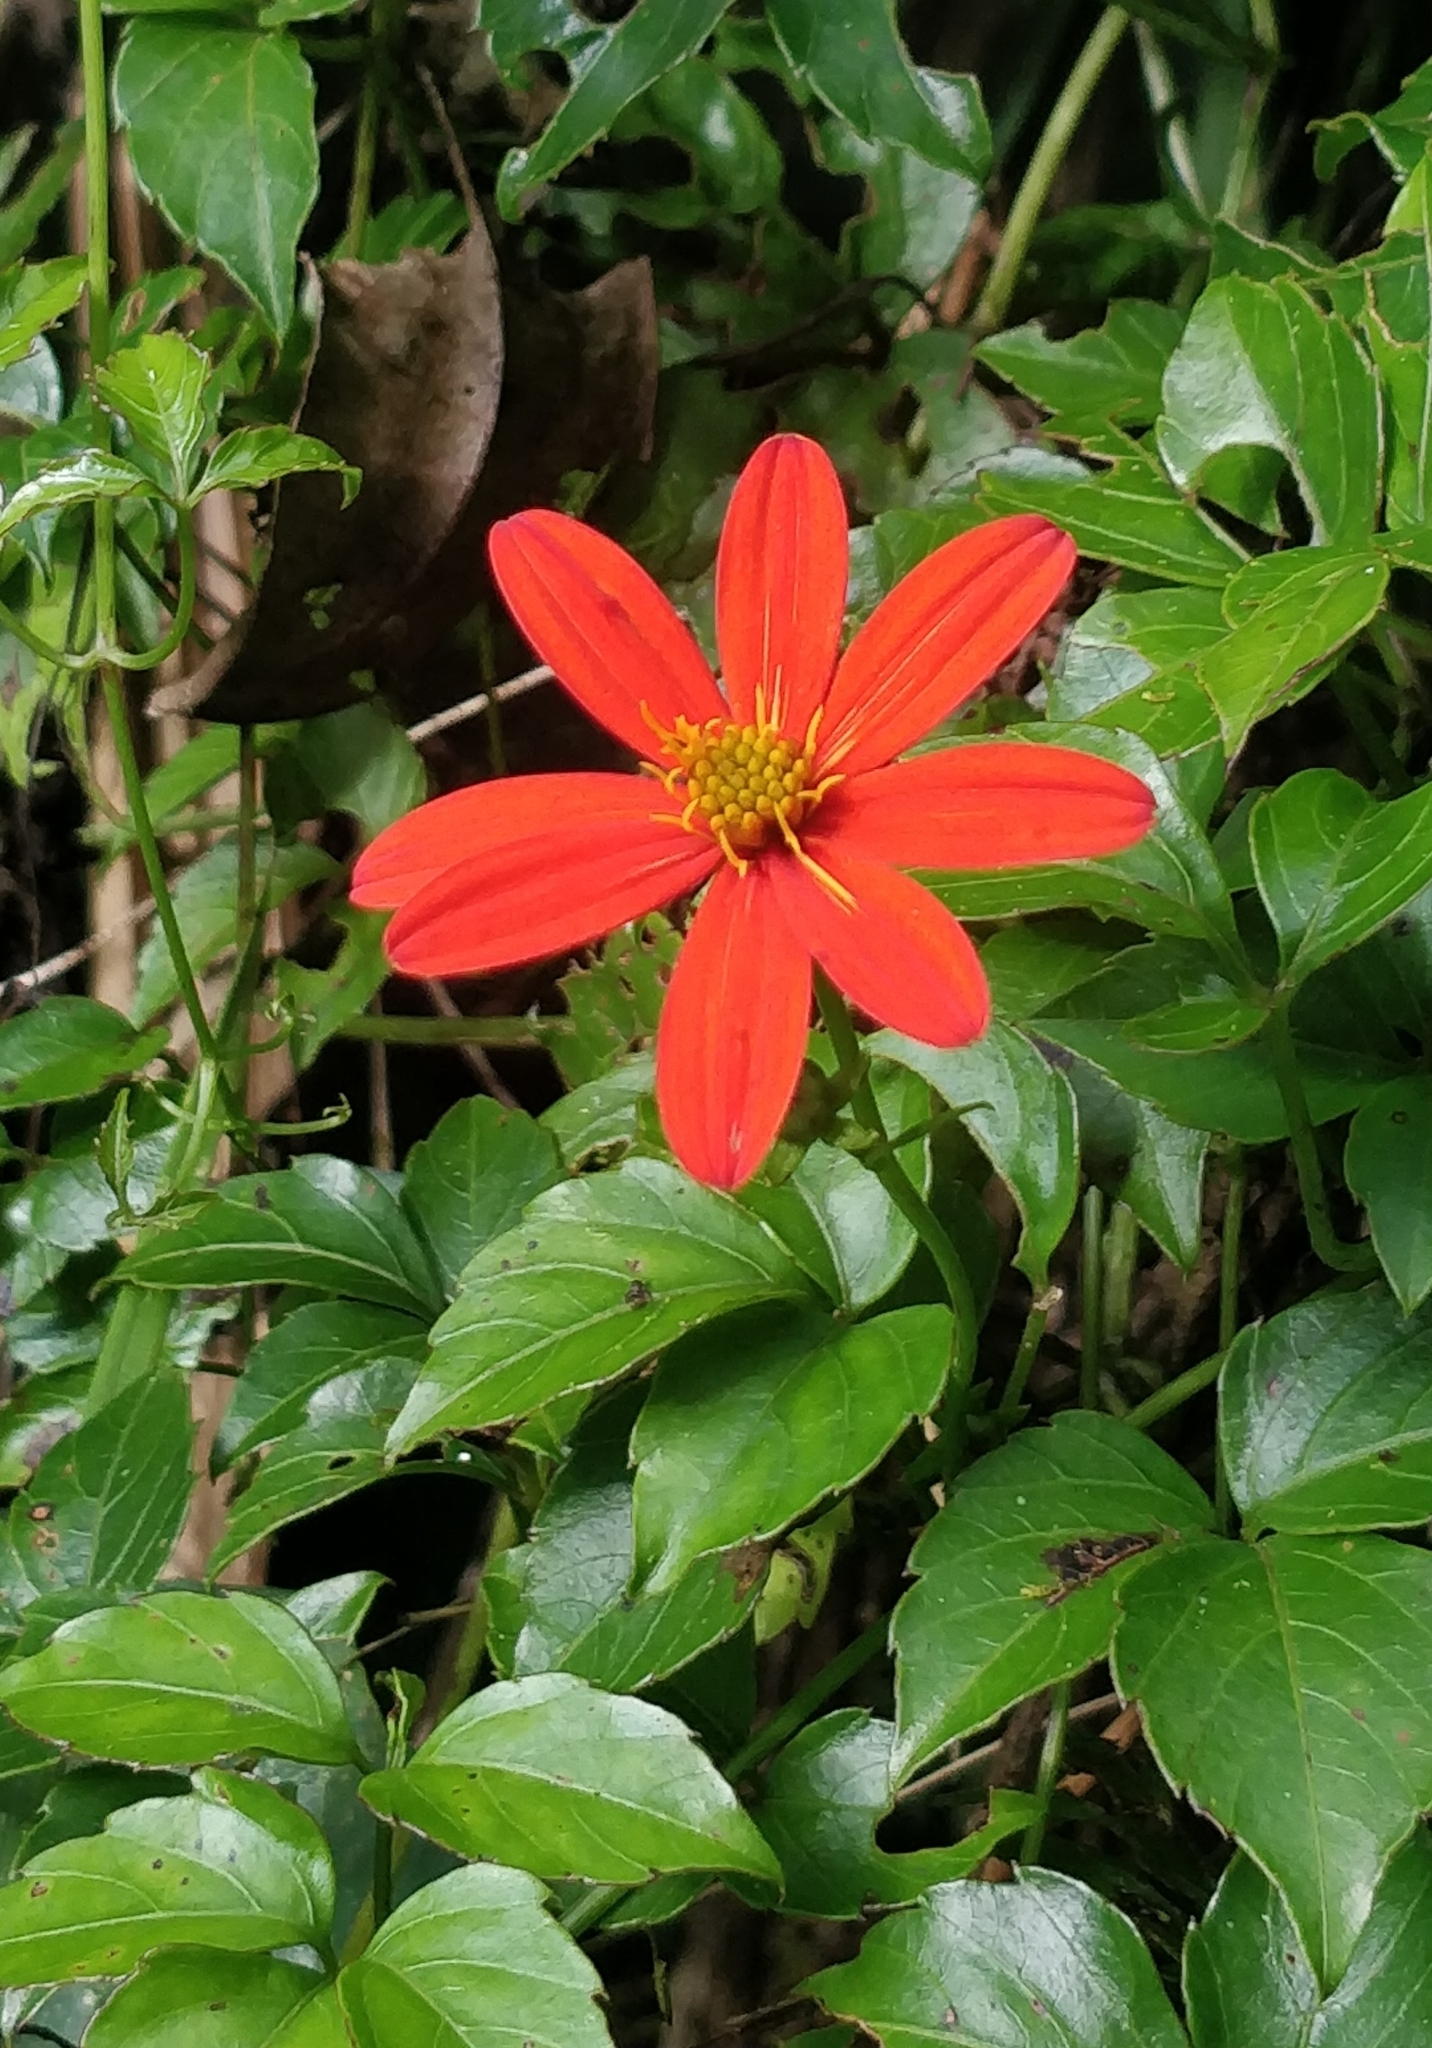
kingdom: Plantae
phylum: Tracheophyta
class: Magnoliopsida
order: Asterales
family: Asteraceae
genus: Hidalgoa
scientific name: Hidalgoa ternata
